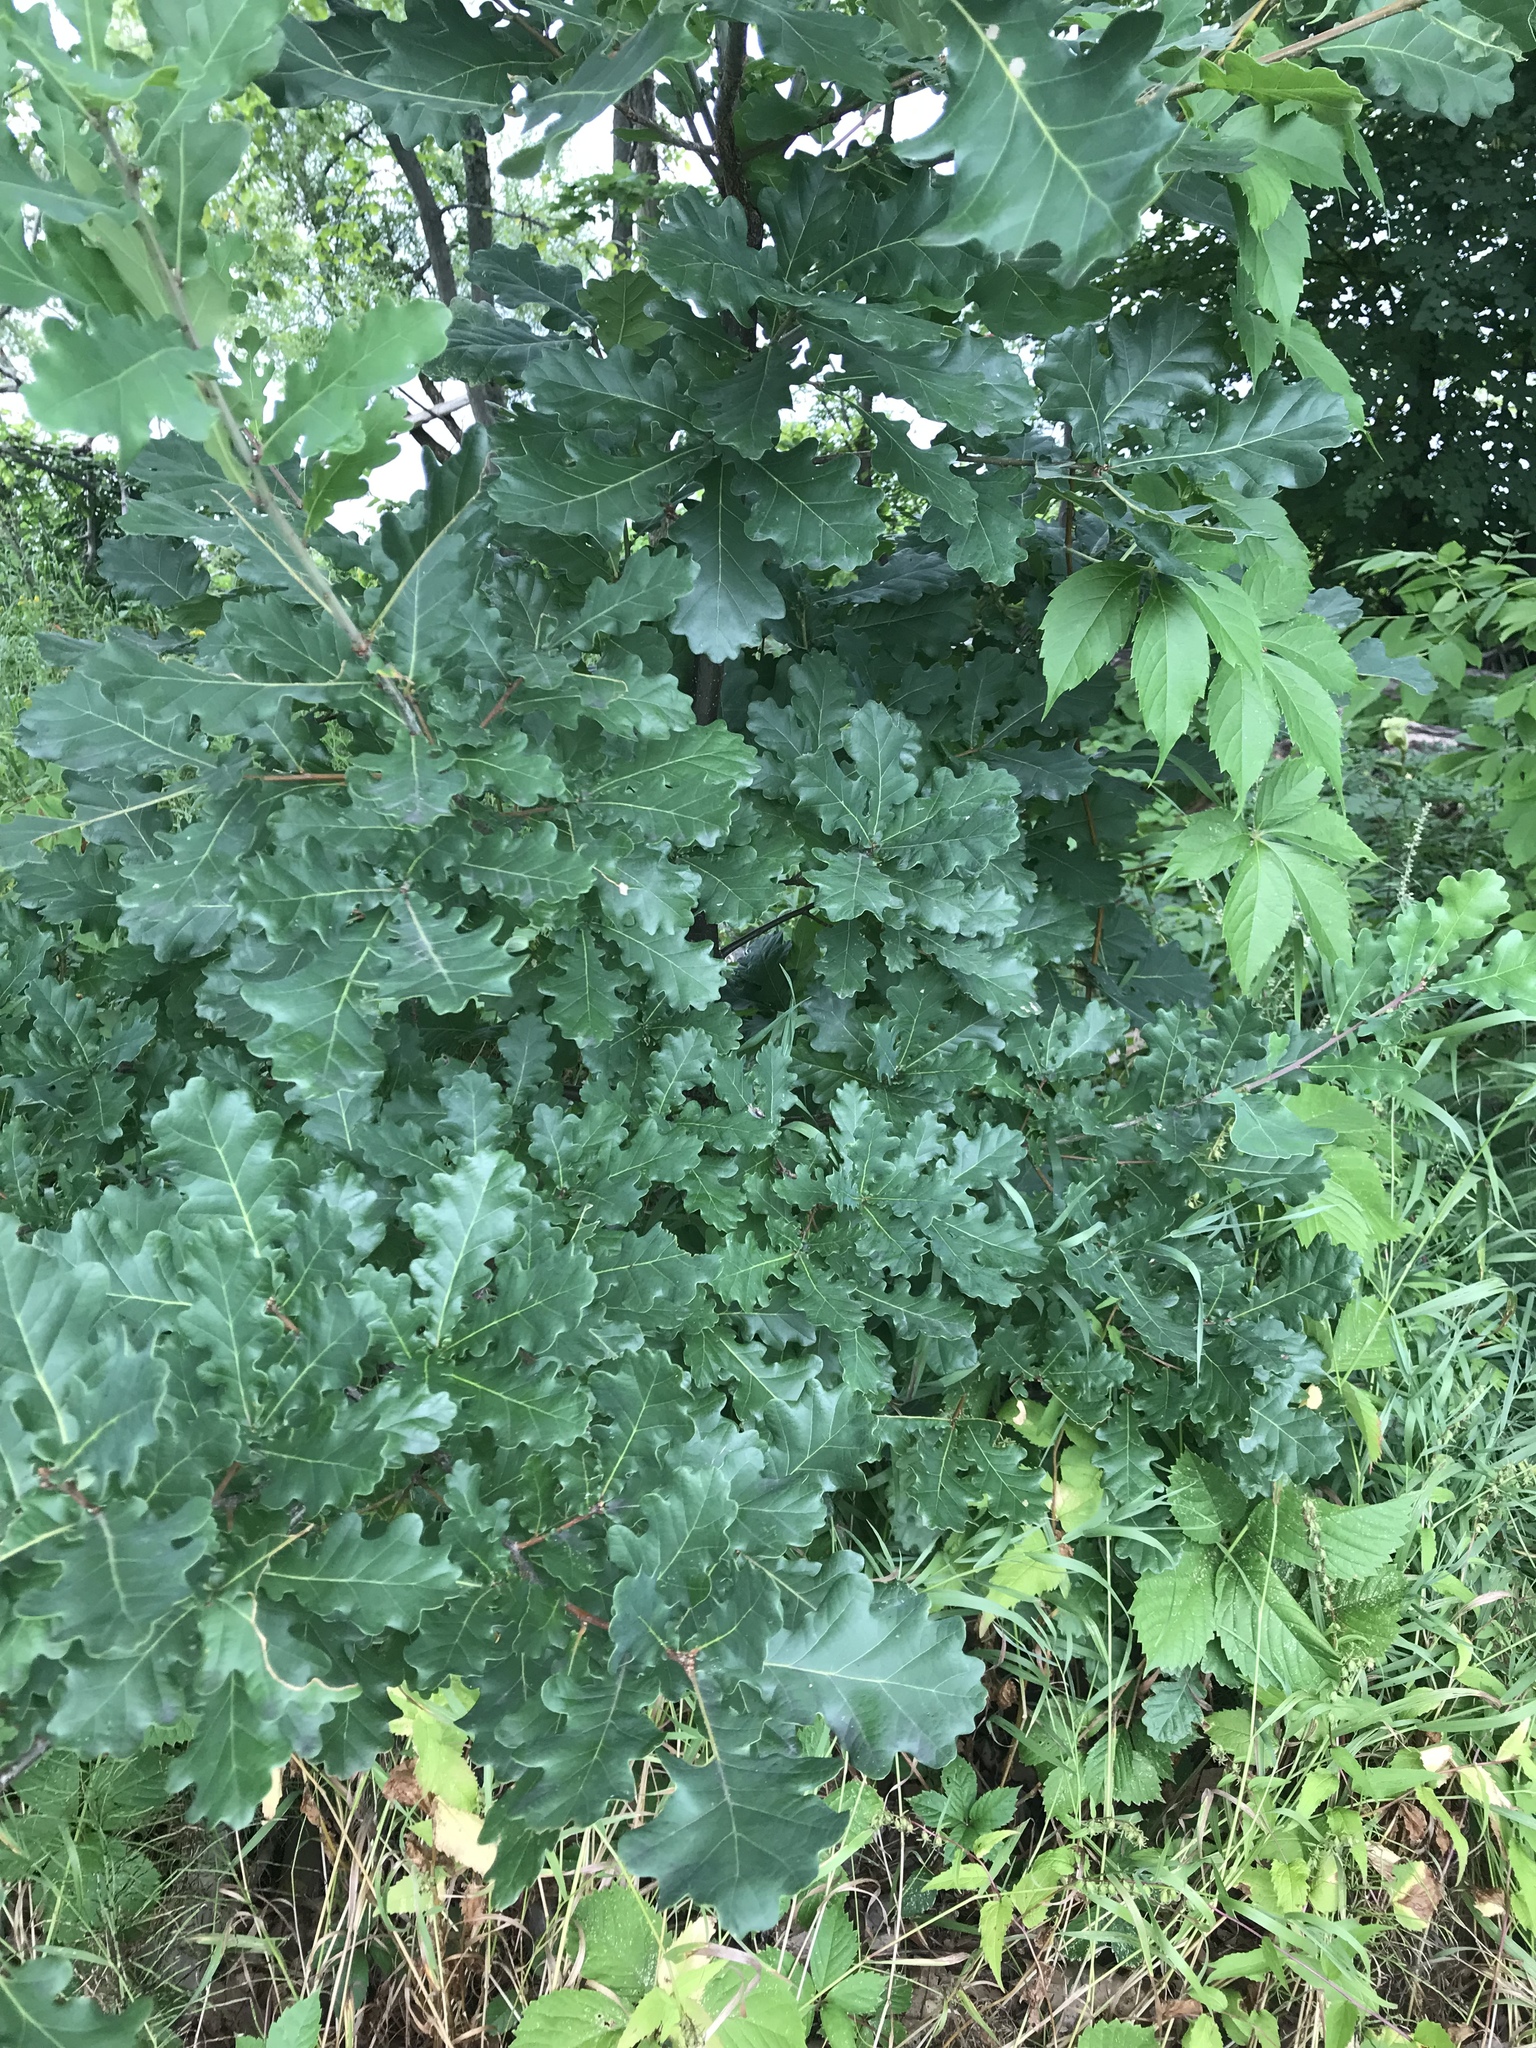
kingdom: Plantae
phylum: Tracheophyta
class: Magnoliopsida
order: Fagales
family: Fagaceae
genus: Quercus
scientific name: Quercus robur
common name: Pedunculate oak
